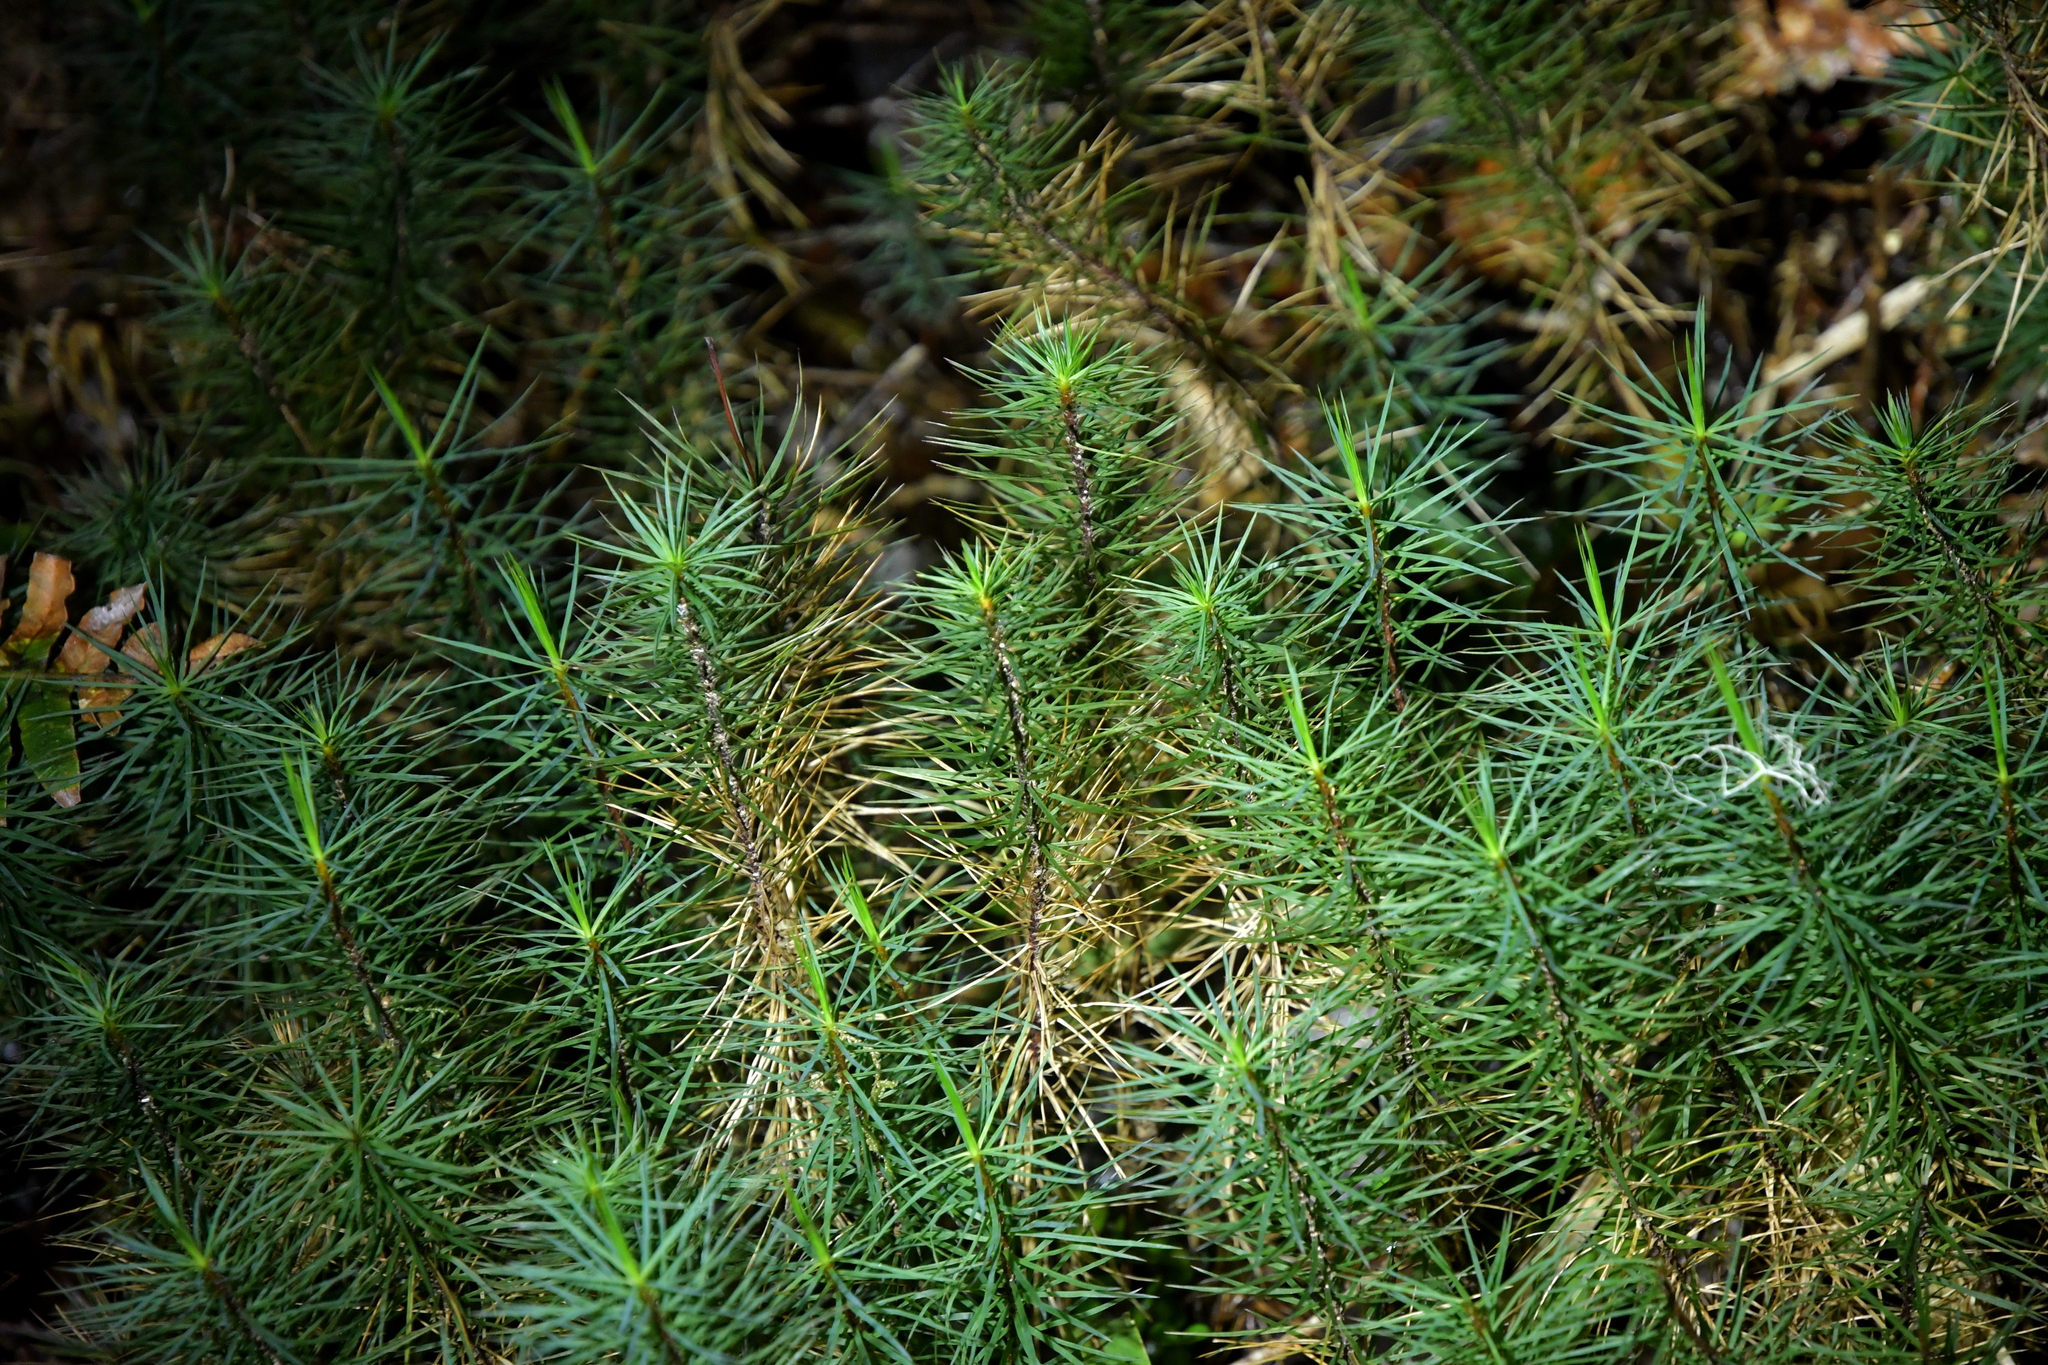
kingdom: Plantae
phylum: Bryophyta
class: Polytrichopsida
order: Polytrichales
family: Polytrichaceae
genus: Dawsonia
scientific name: Dawsonia superba
